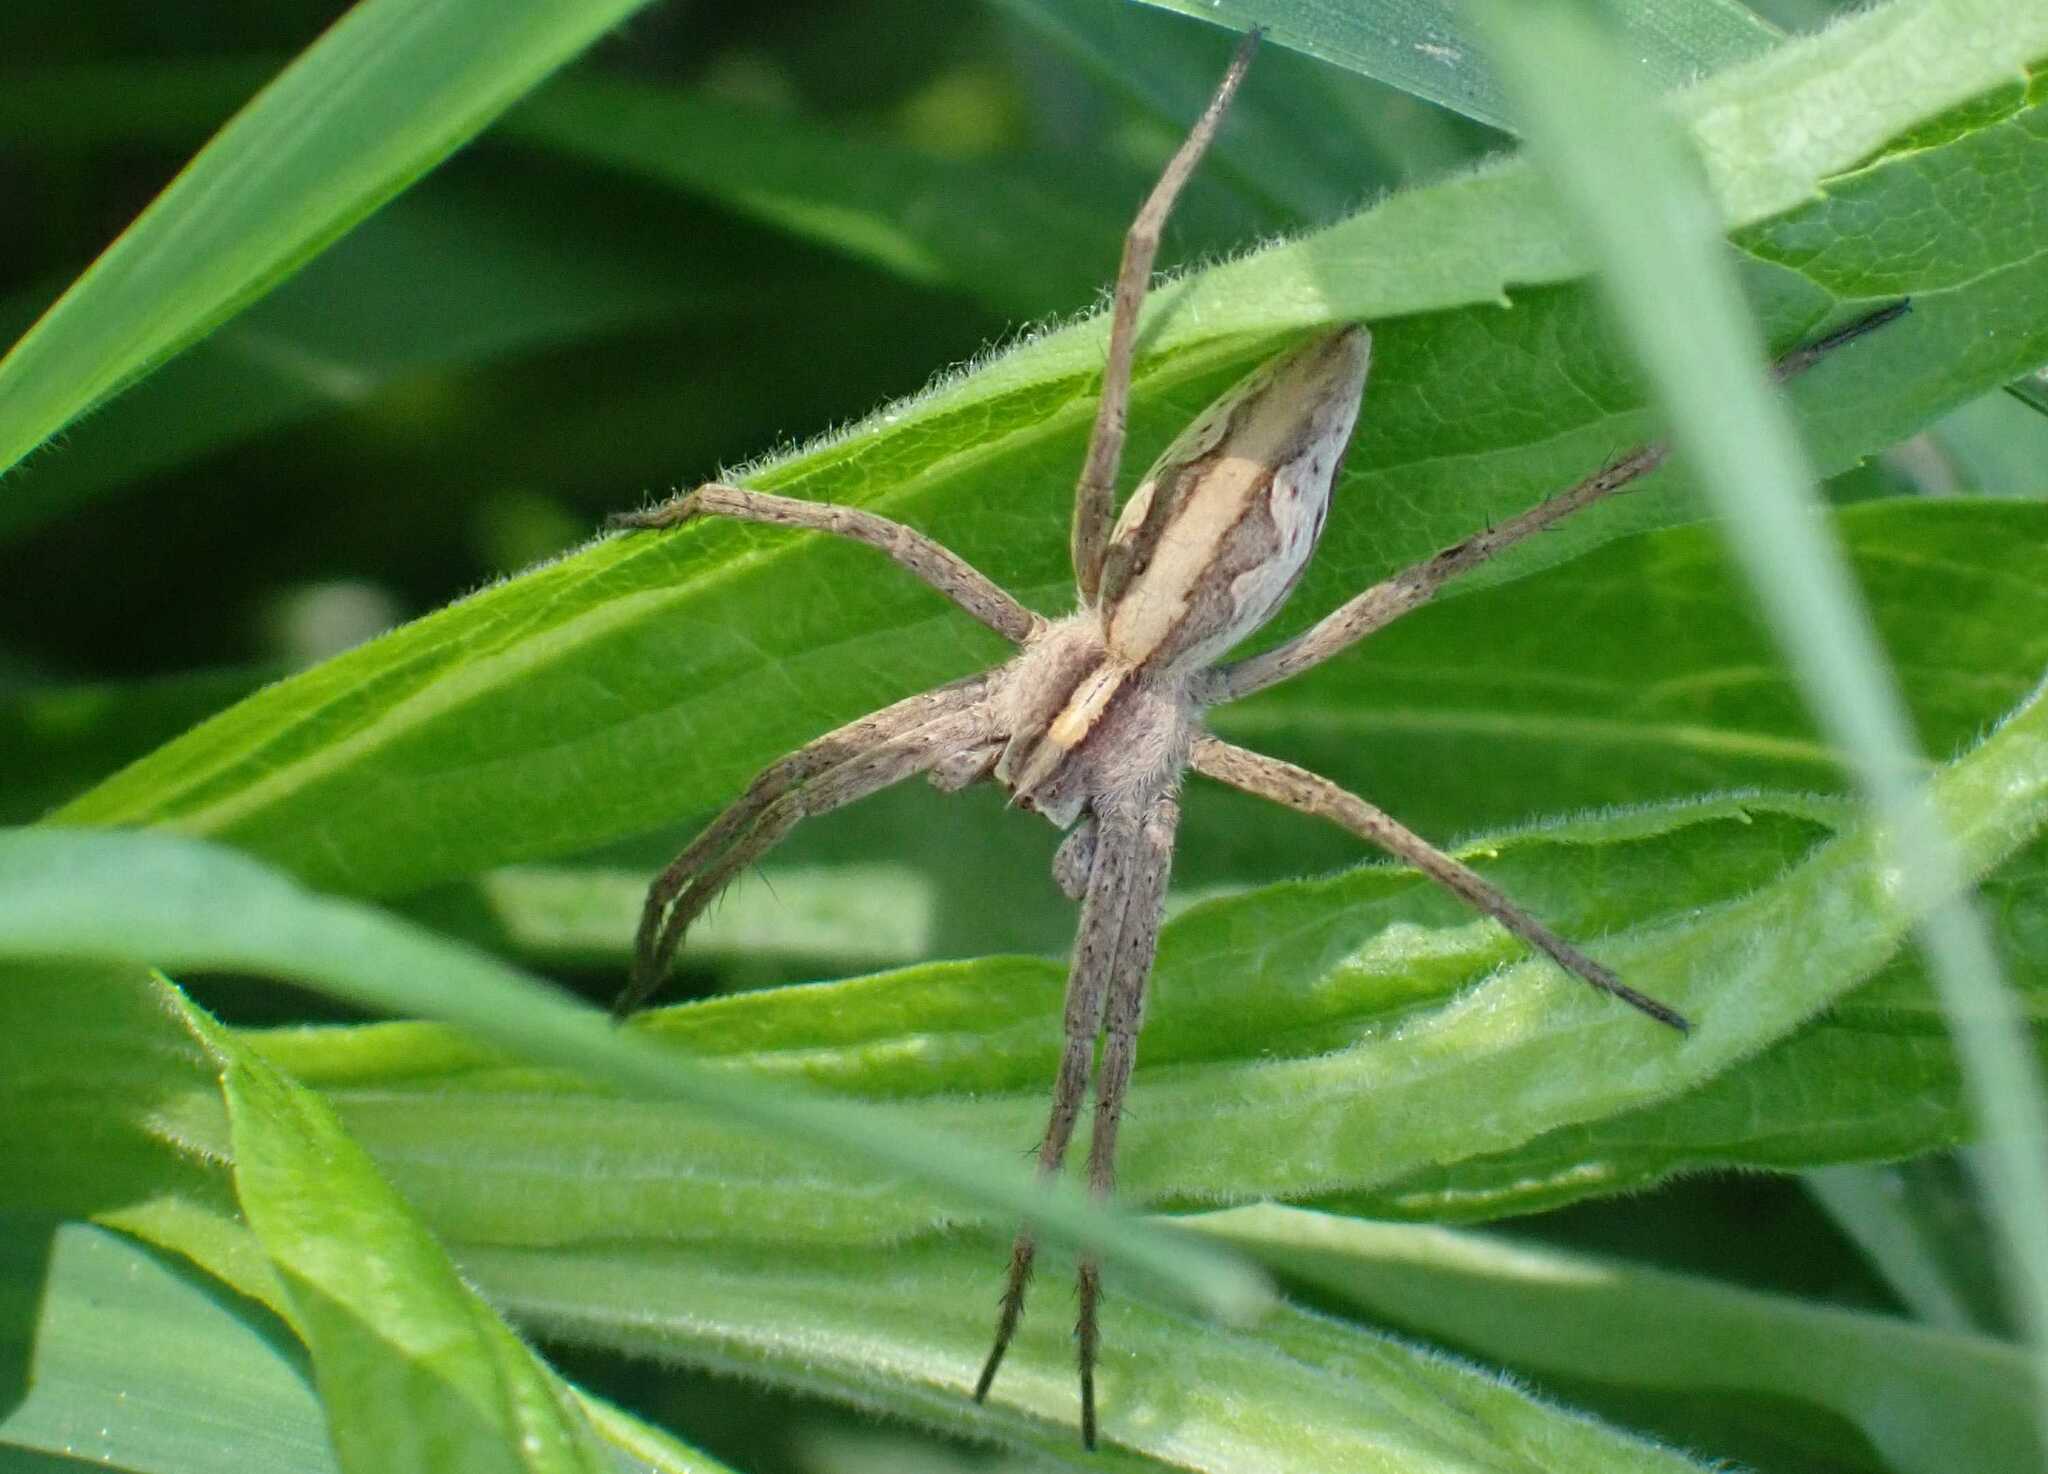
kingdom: Animalia
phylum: Arthropoda
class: Arachnida
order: Araneae
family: Pisauridae
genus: Pisaura
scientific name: Pisaura mirabilis
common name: Tent spider
